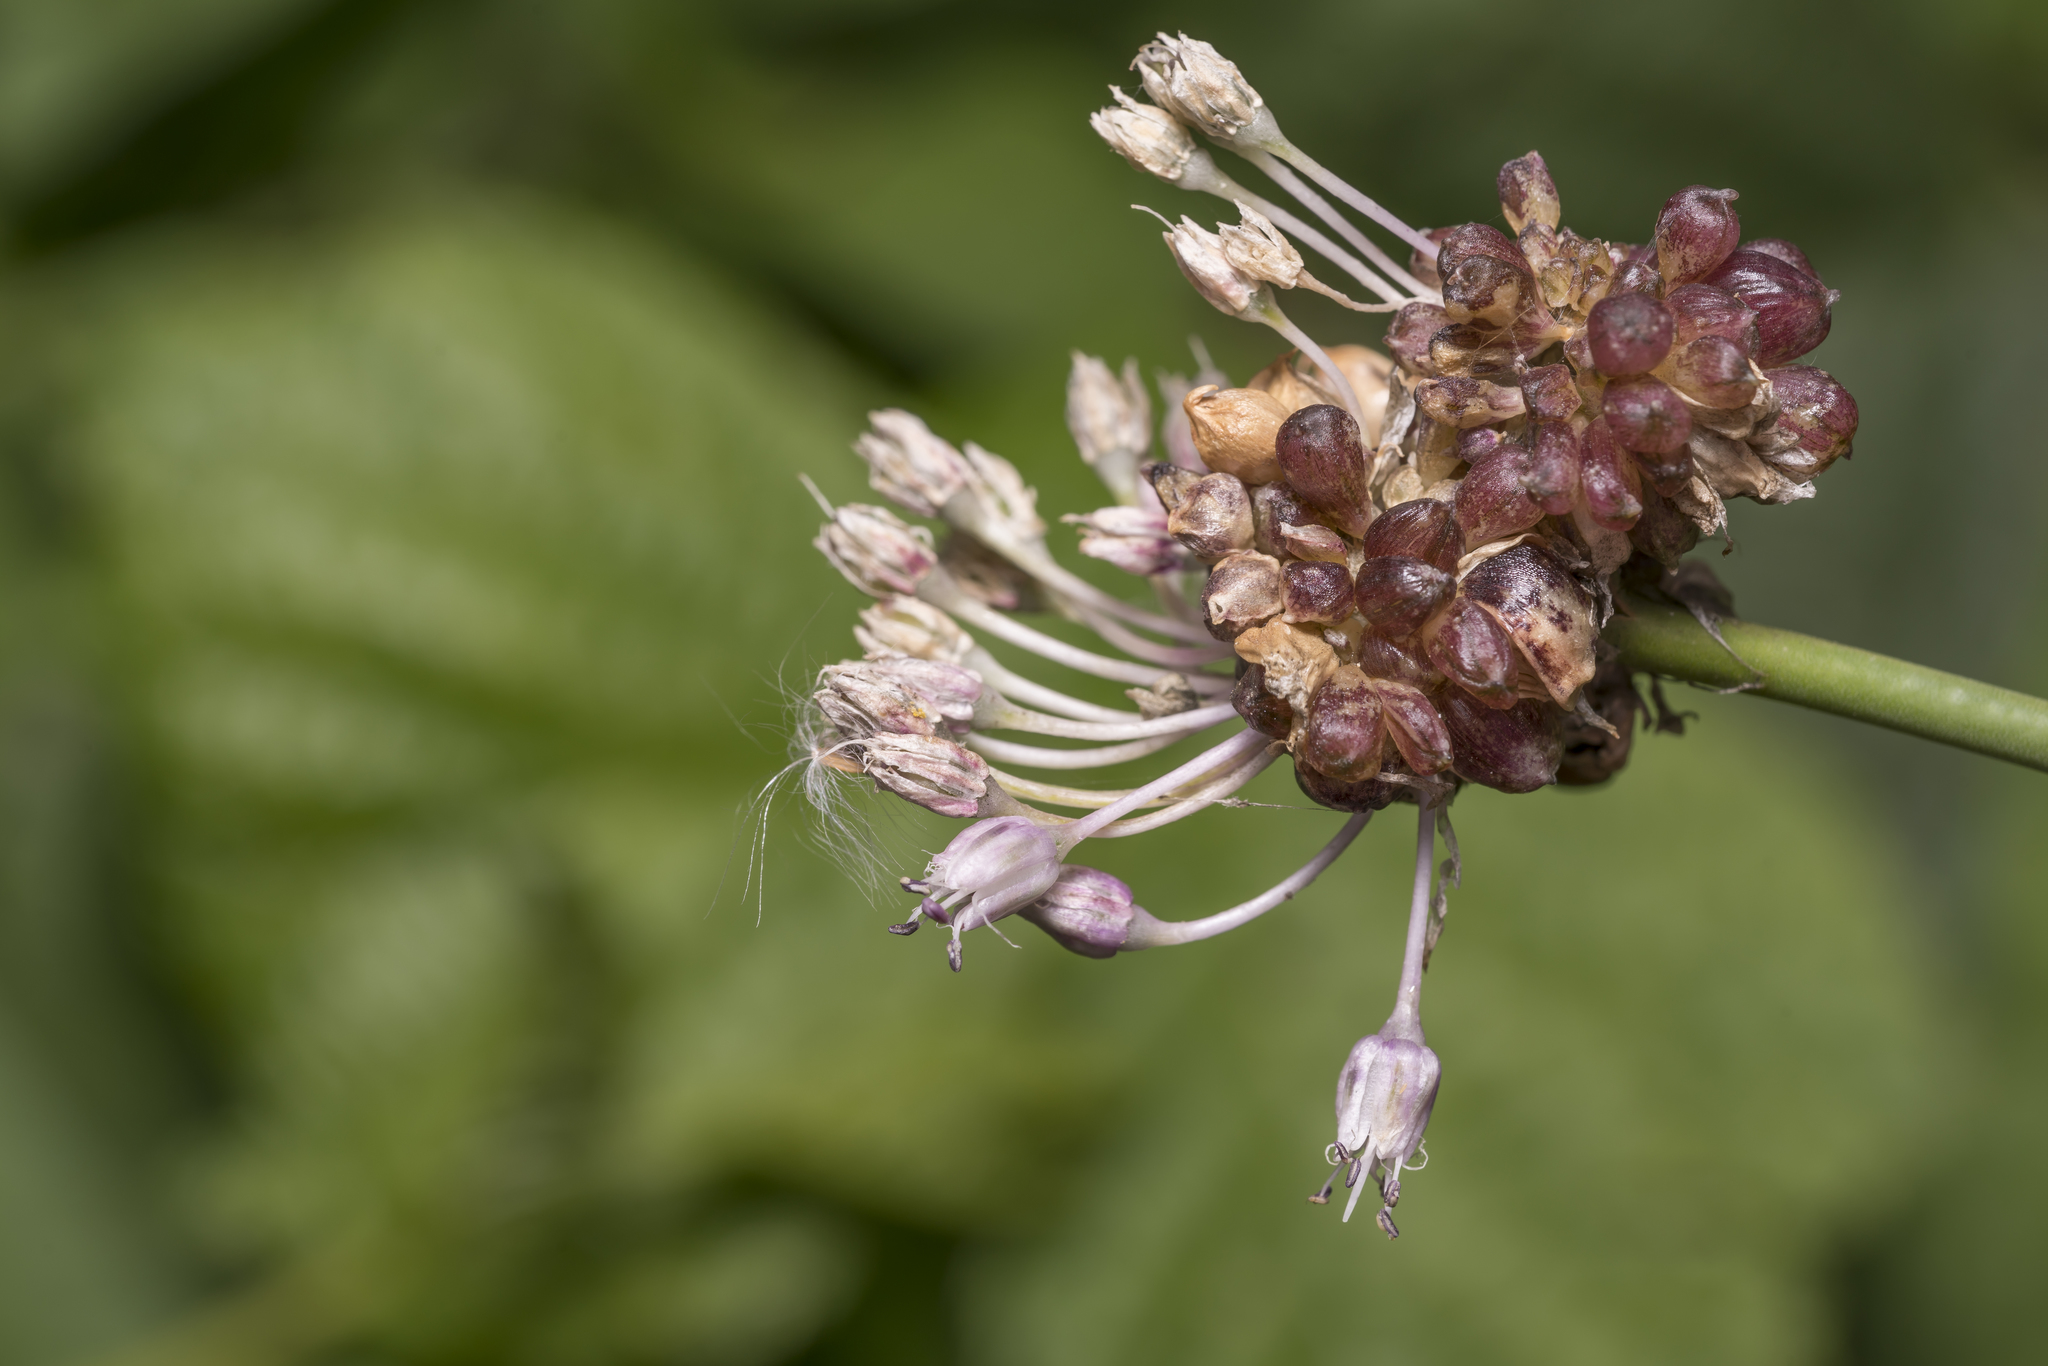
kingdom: Plantae
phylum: Tracheophyta
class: Liliopsida
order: Asparagales
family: Amaryllidaceae
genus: Allium
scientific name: Allium vineale
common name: Crow garlic
